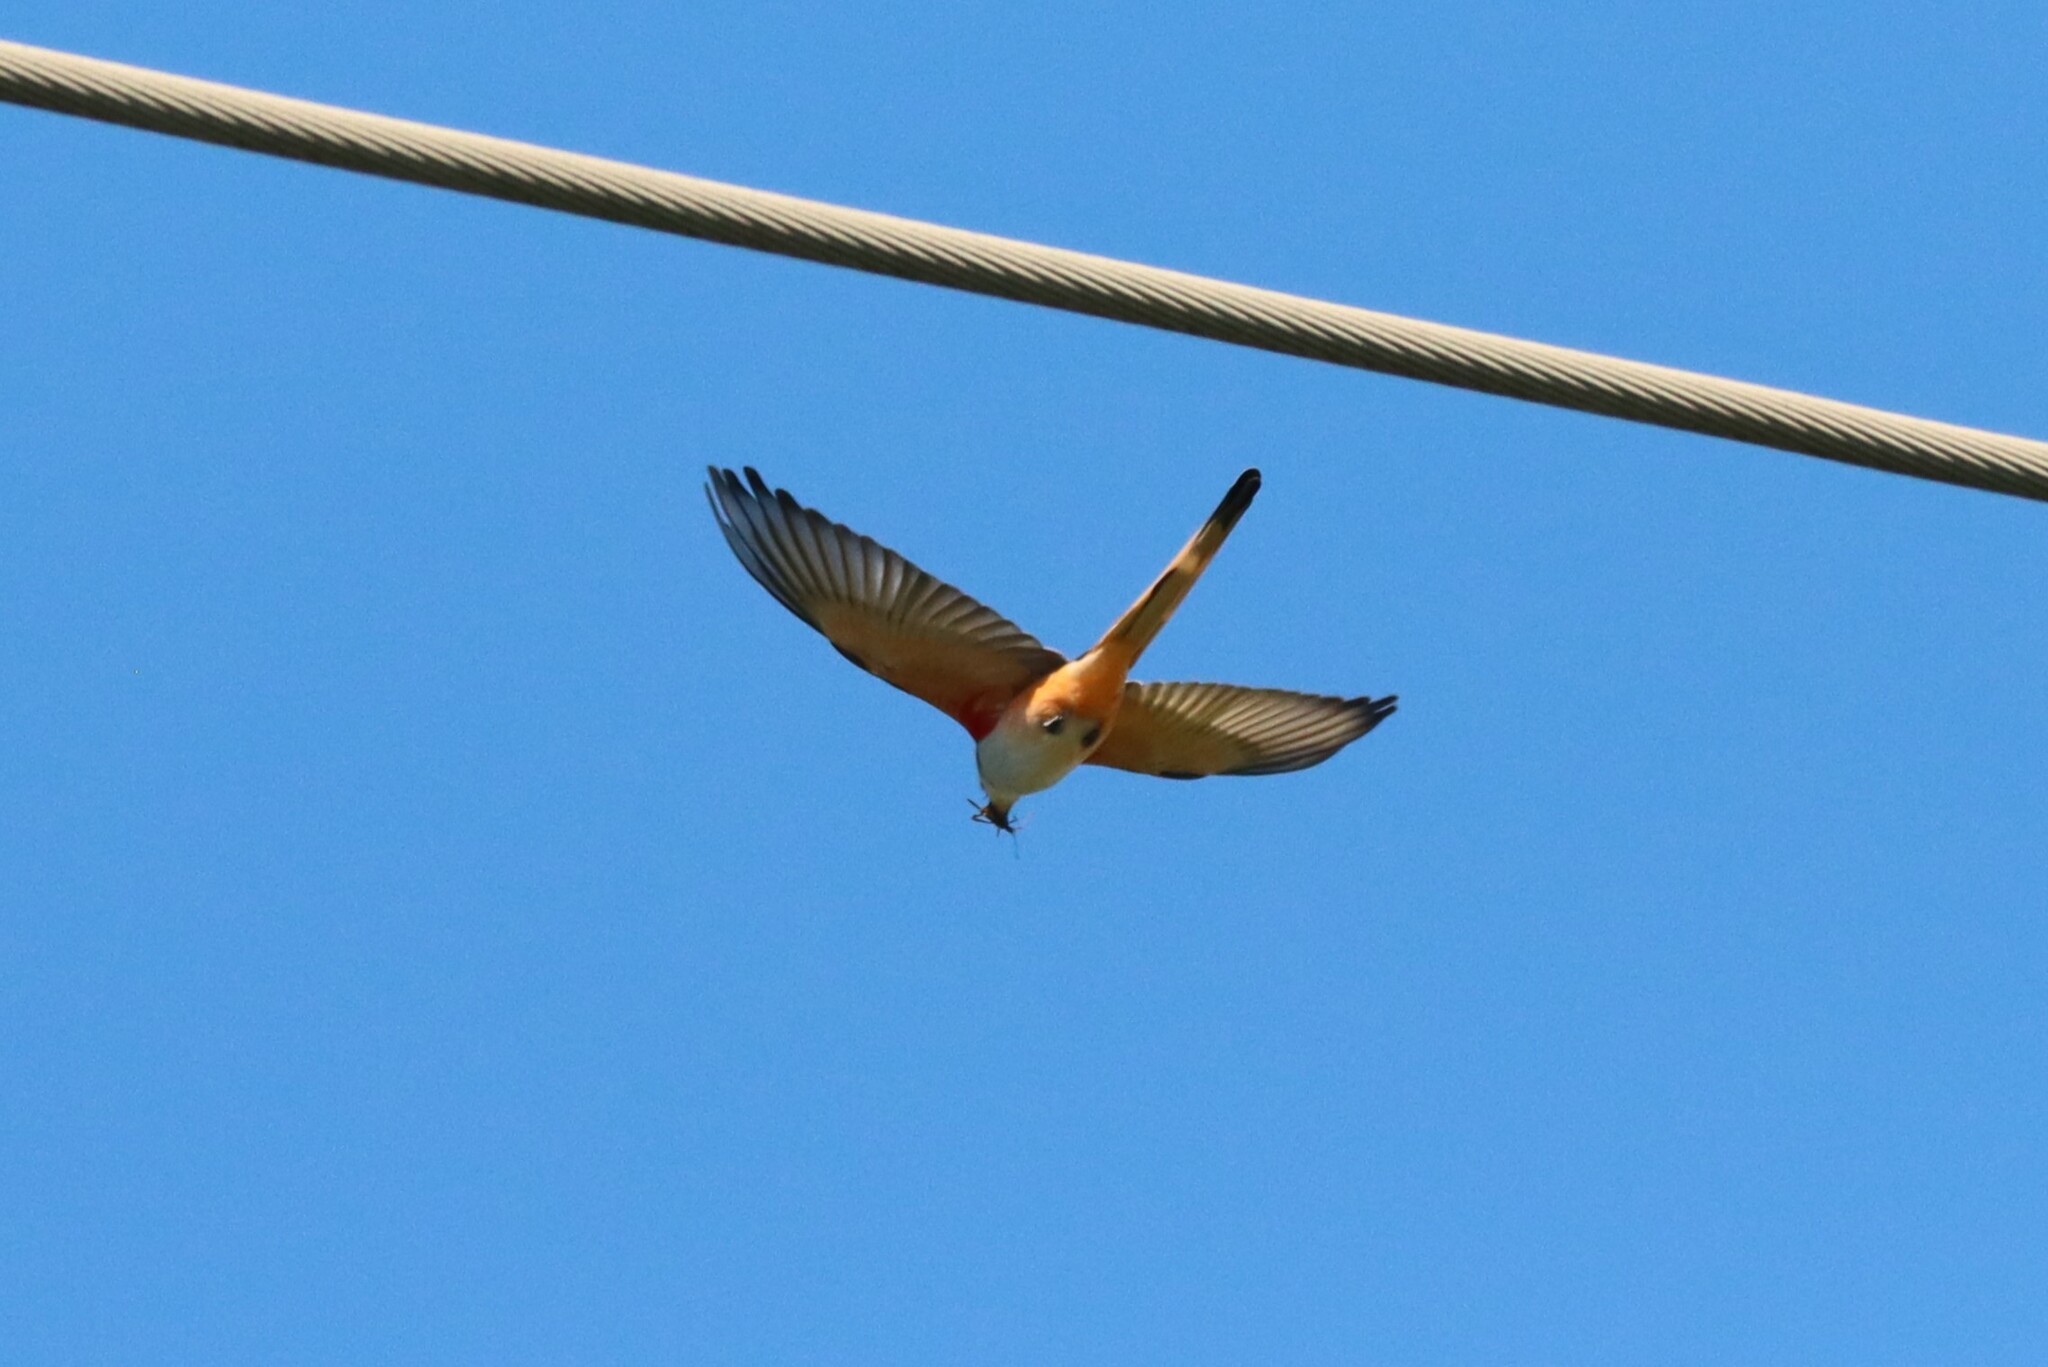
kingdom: Animalia
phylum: Chordata
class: Aves
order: Passeriformes
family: Tyrannidae
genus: Tyrannus
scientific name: Tyrannus forficatus
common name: Scissor-tailed flycatcher
